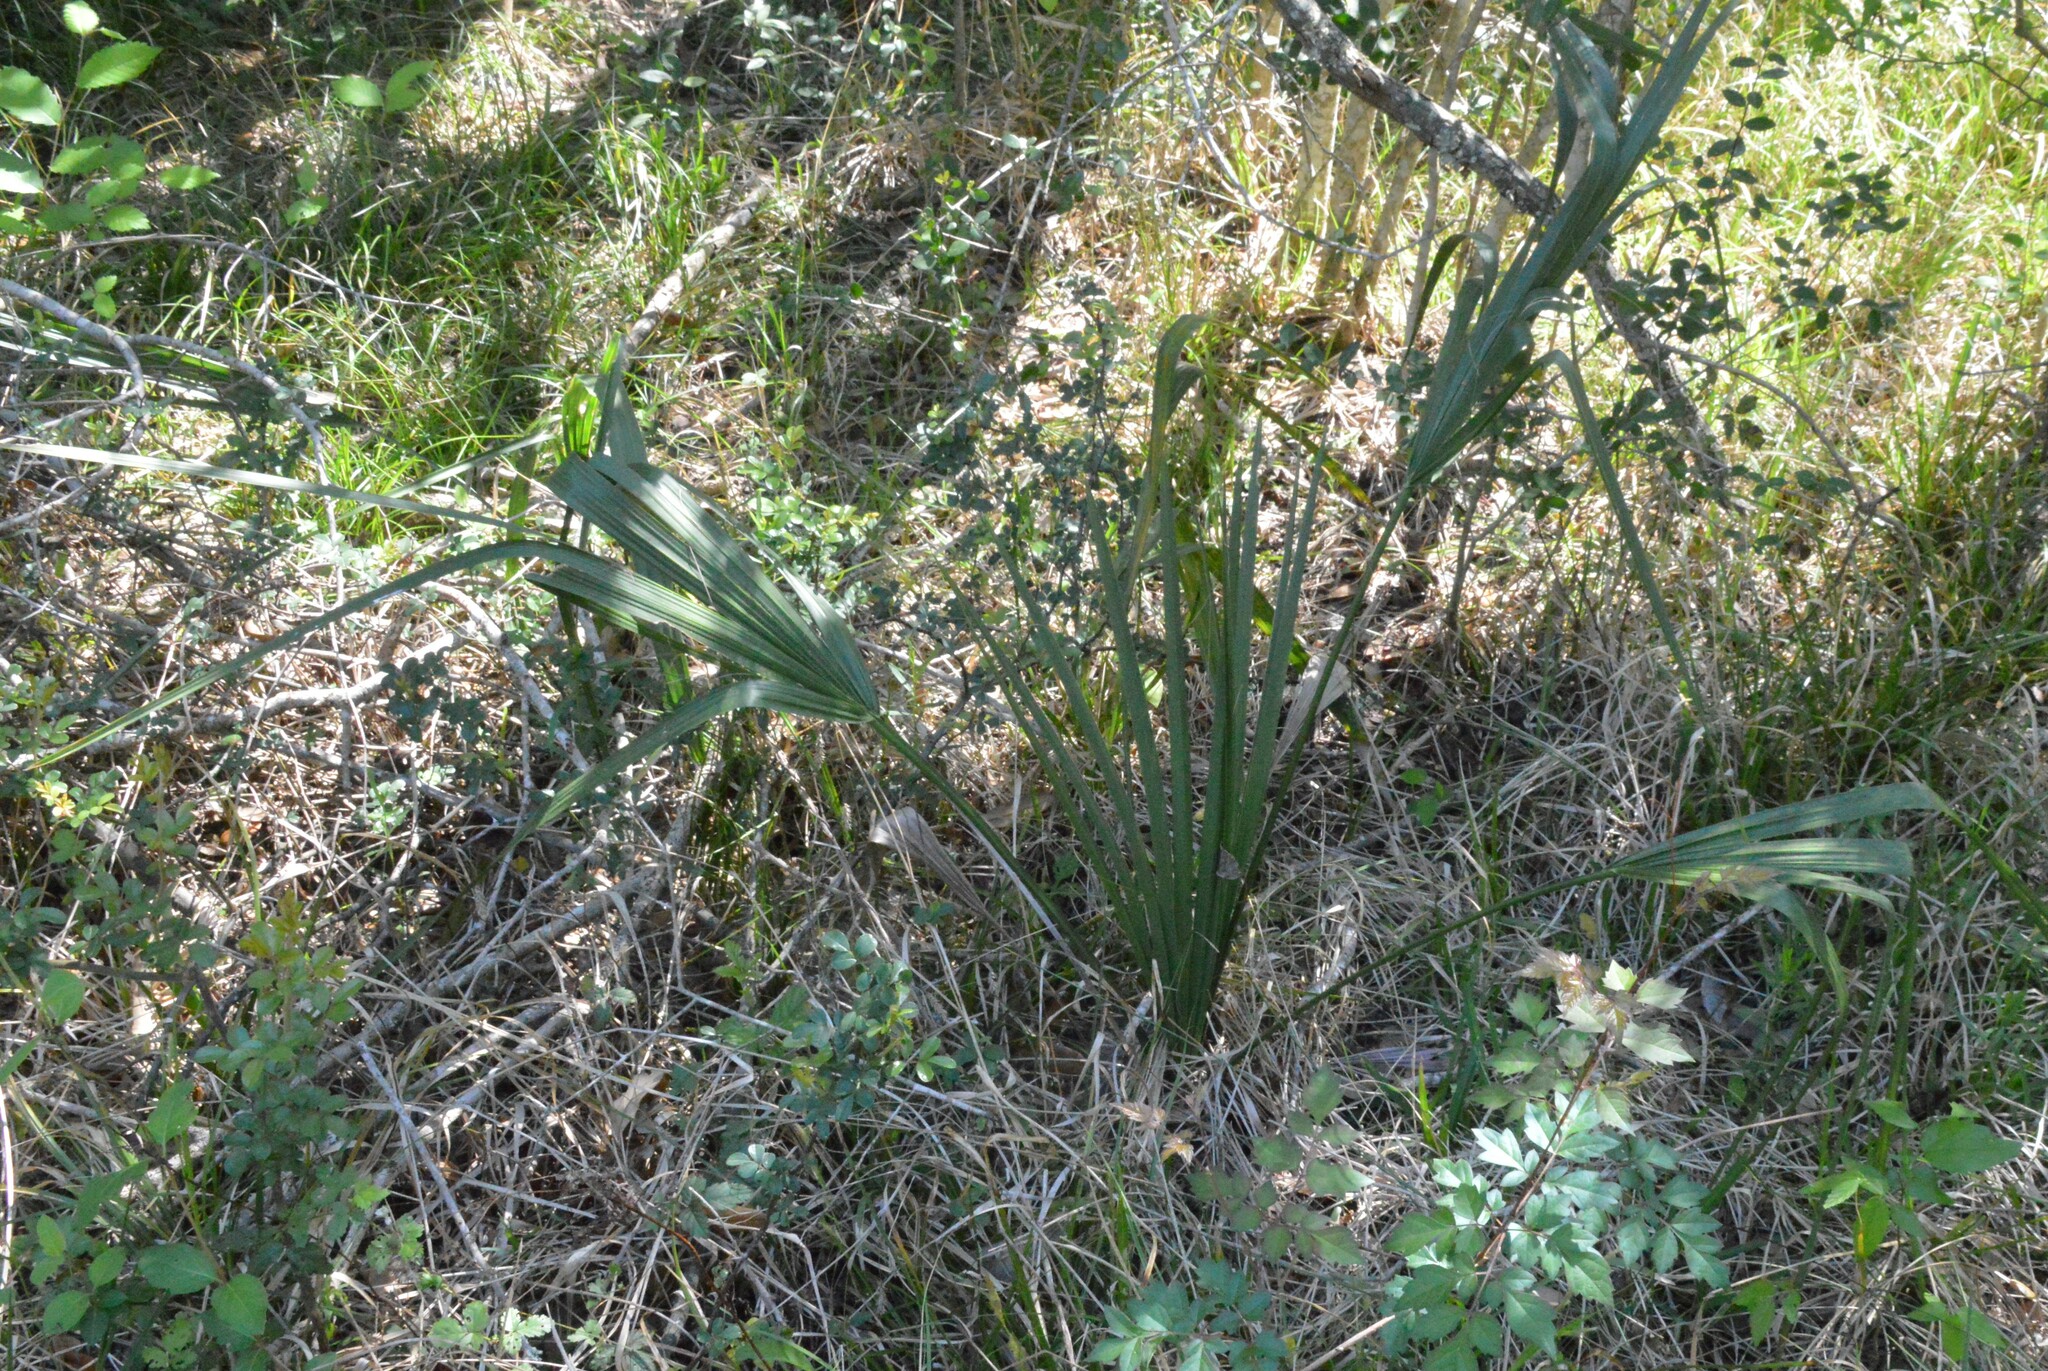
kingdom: Plantae
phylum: Tracheophyta
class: Liliopsida
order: Arecales
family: Arecaceae
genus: Sabal
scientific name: Sabal minor
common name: Dwarf palmetto
